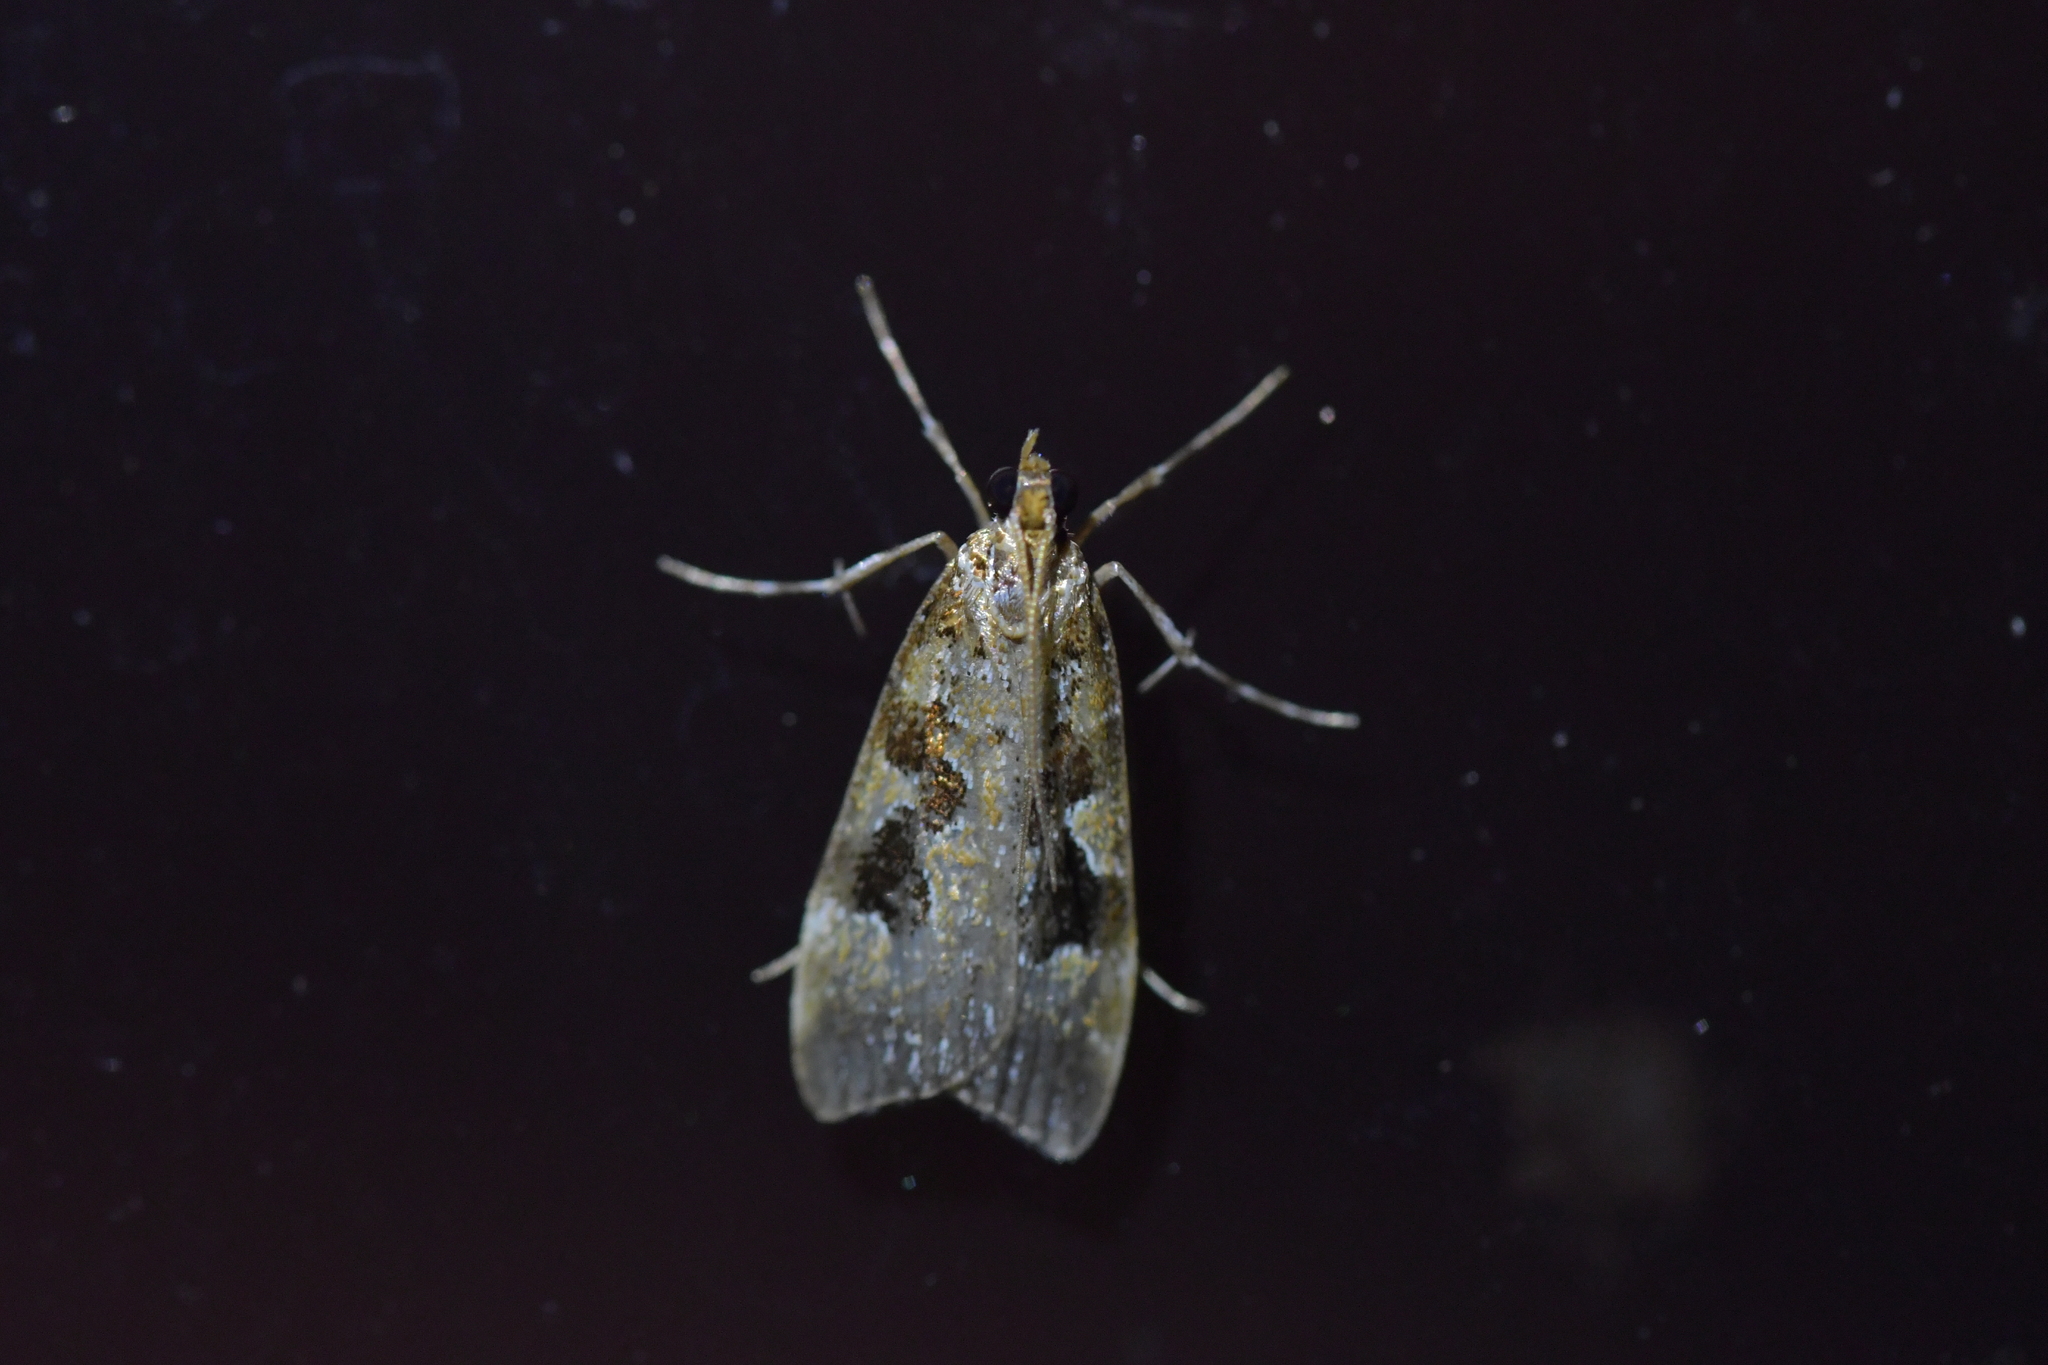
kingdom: Animalia
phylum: Arthropoda
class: Insecta
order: Lepidoptera
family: Crambidae
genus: Scoparia
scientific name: Scoparia ustimacula
